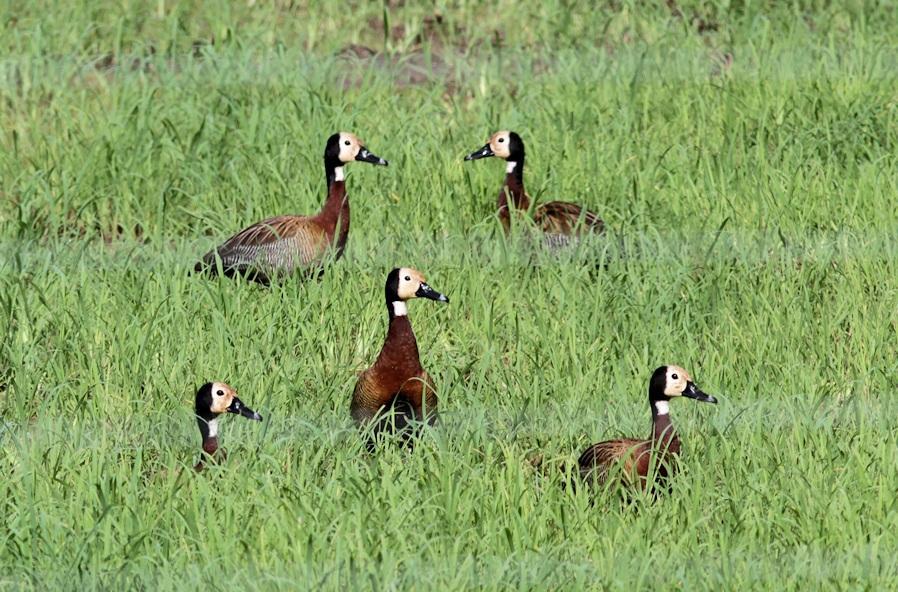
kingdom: Animalia
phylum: Chordata
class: Aves
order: Anseriformes
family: Anatidae
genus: Dendrocygna
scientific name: Dendrocygna viduata
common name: White-faced whistling duck
